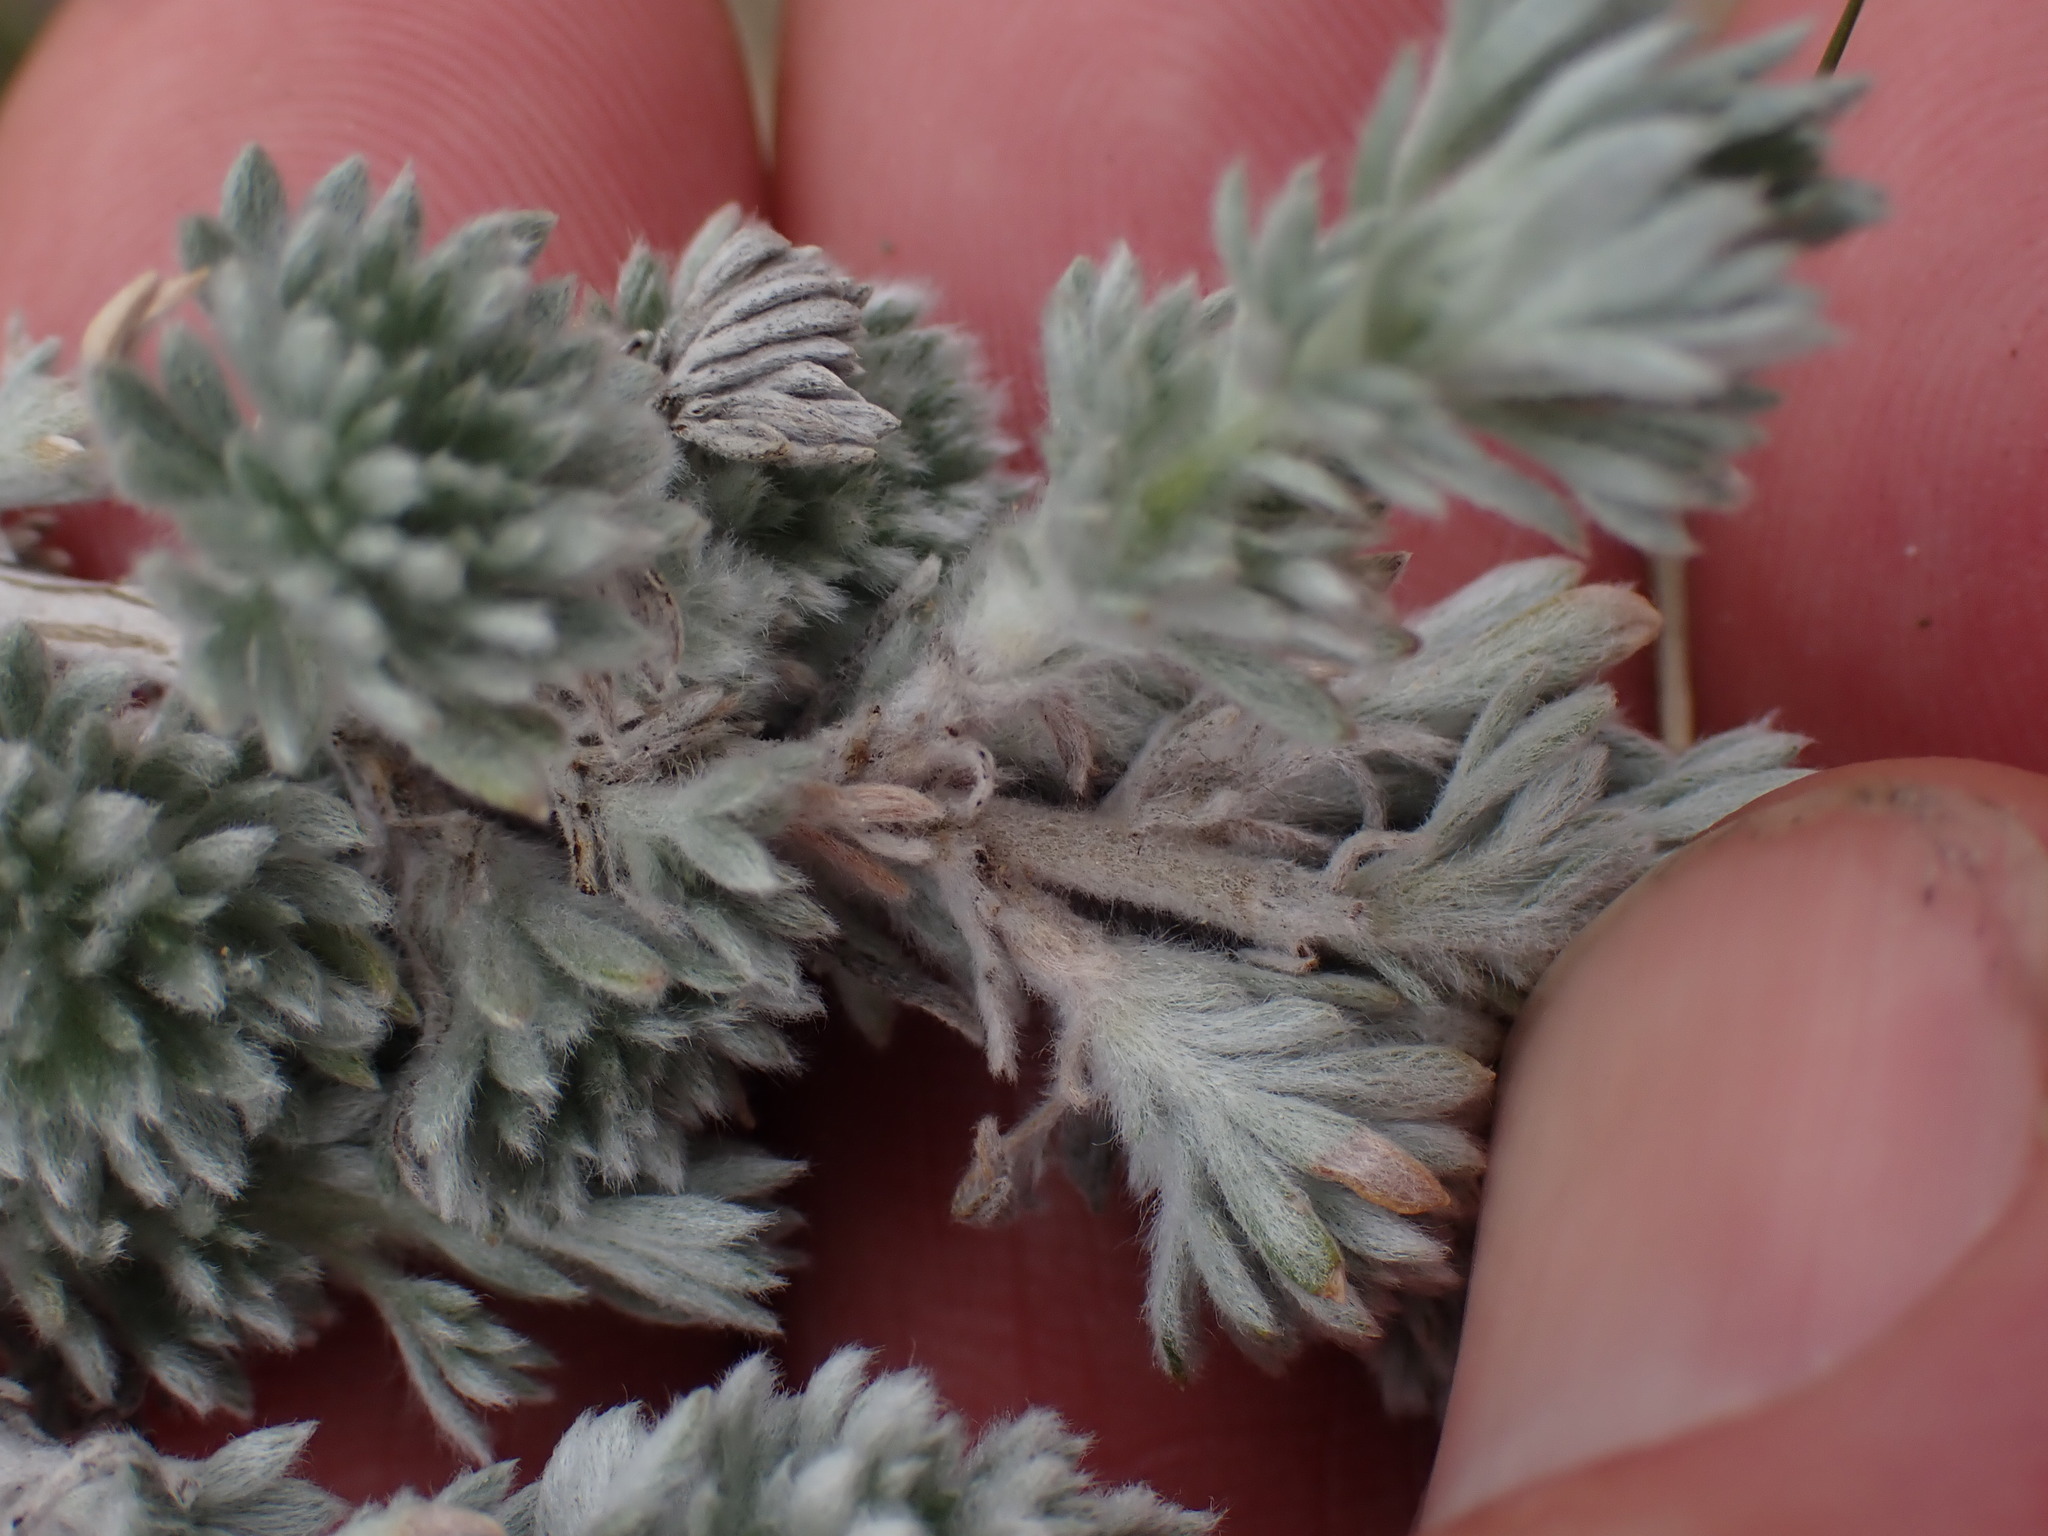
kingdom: Plantae
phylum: Tracheophyta
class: Magnoliopsida
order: Asterales
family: Asteraceae
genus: Artemisia
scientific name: Artemisia frigida
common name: Prairie sagewort
